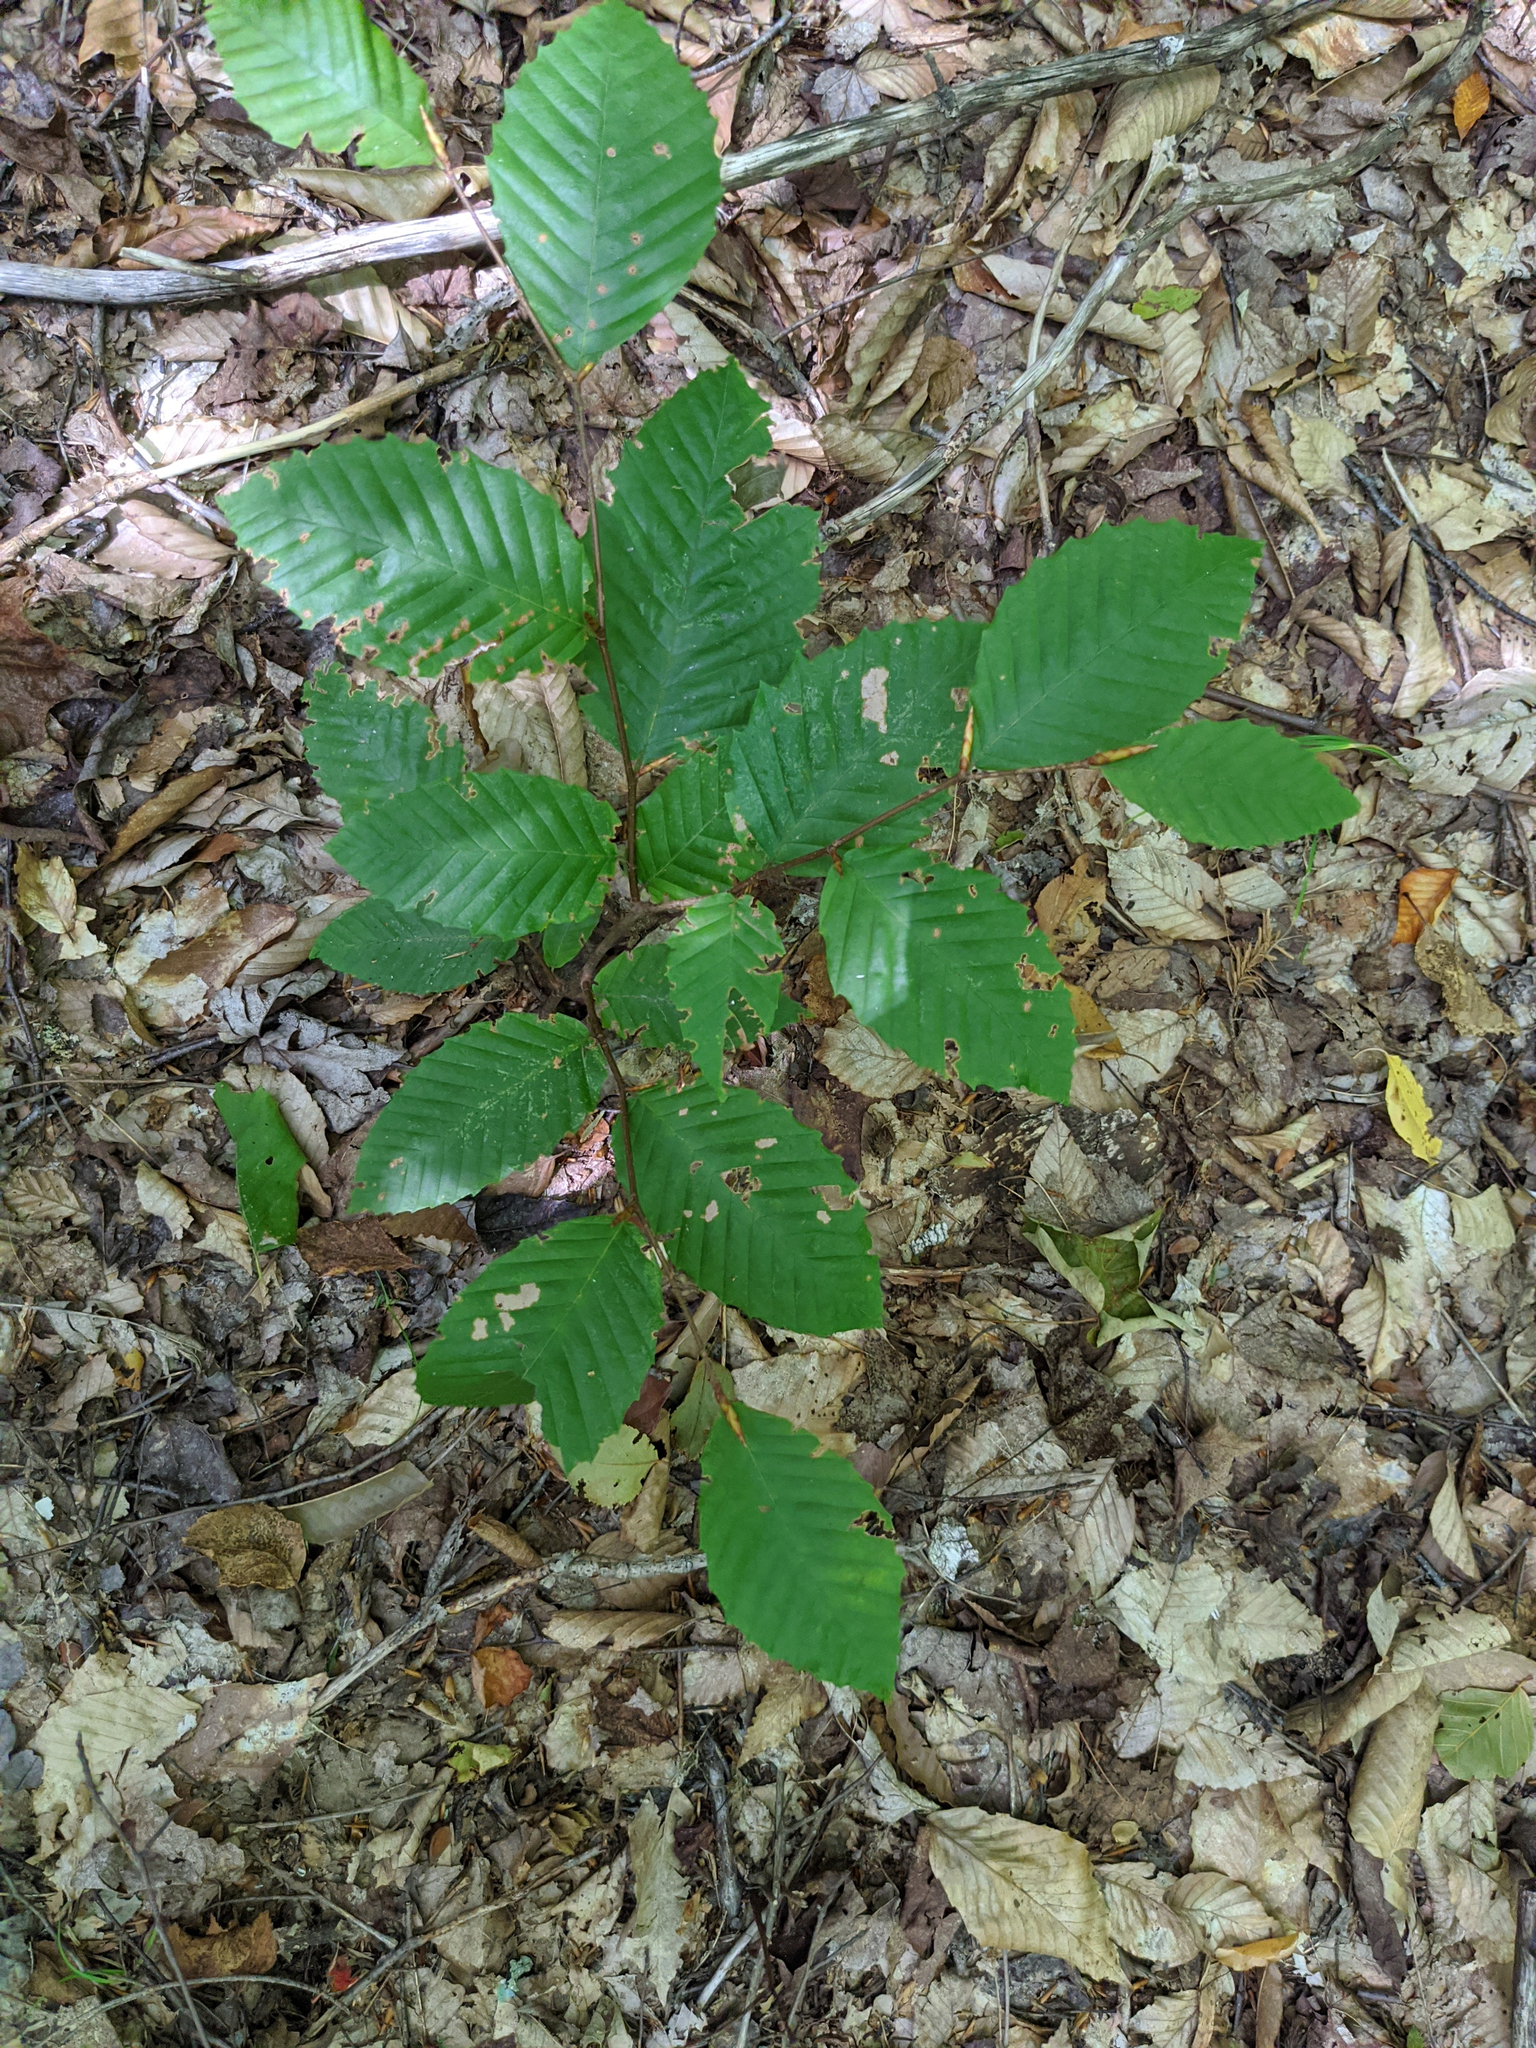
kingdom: Plantae
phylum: Tracheophyta
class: Magnoliopsida
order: Fagales
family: Fagaceae
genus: Fagus
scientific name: Fagus grandifolia
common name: American beech
